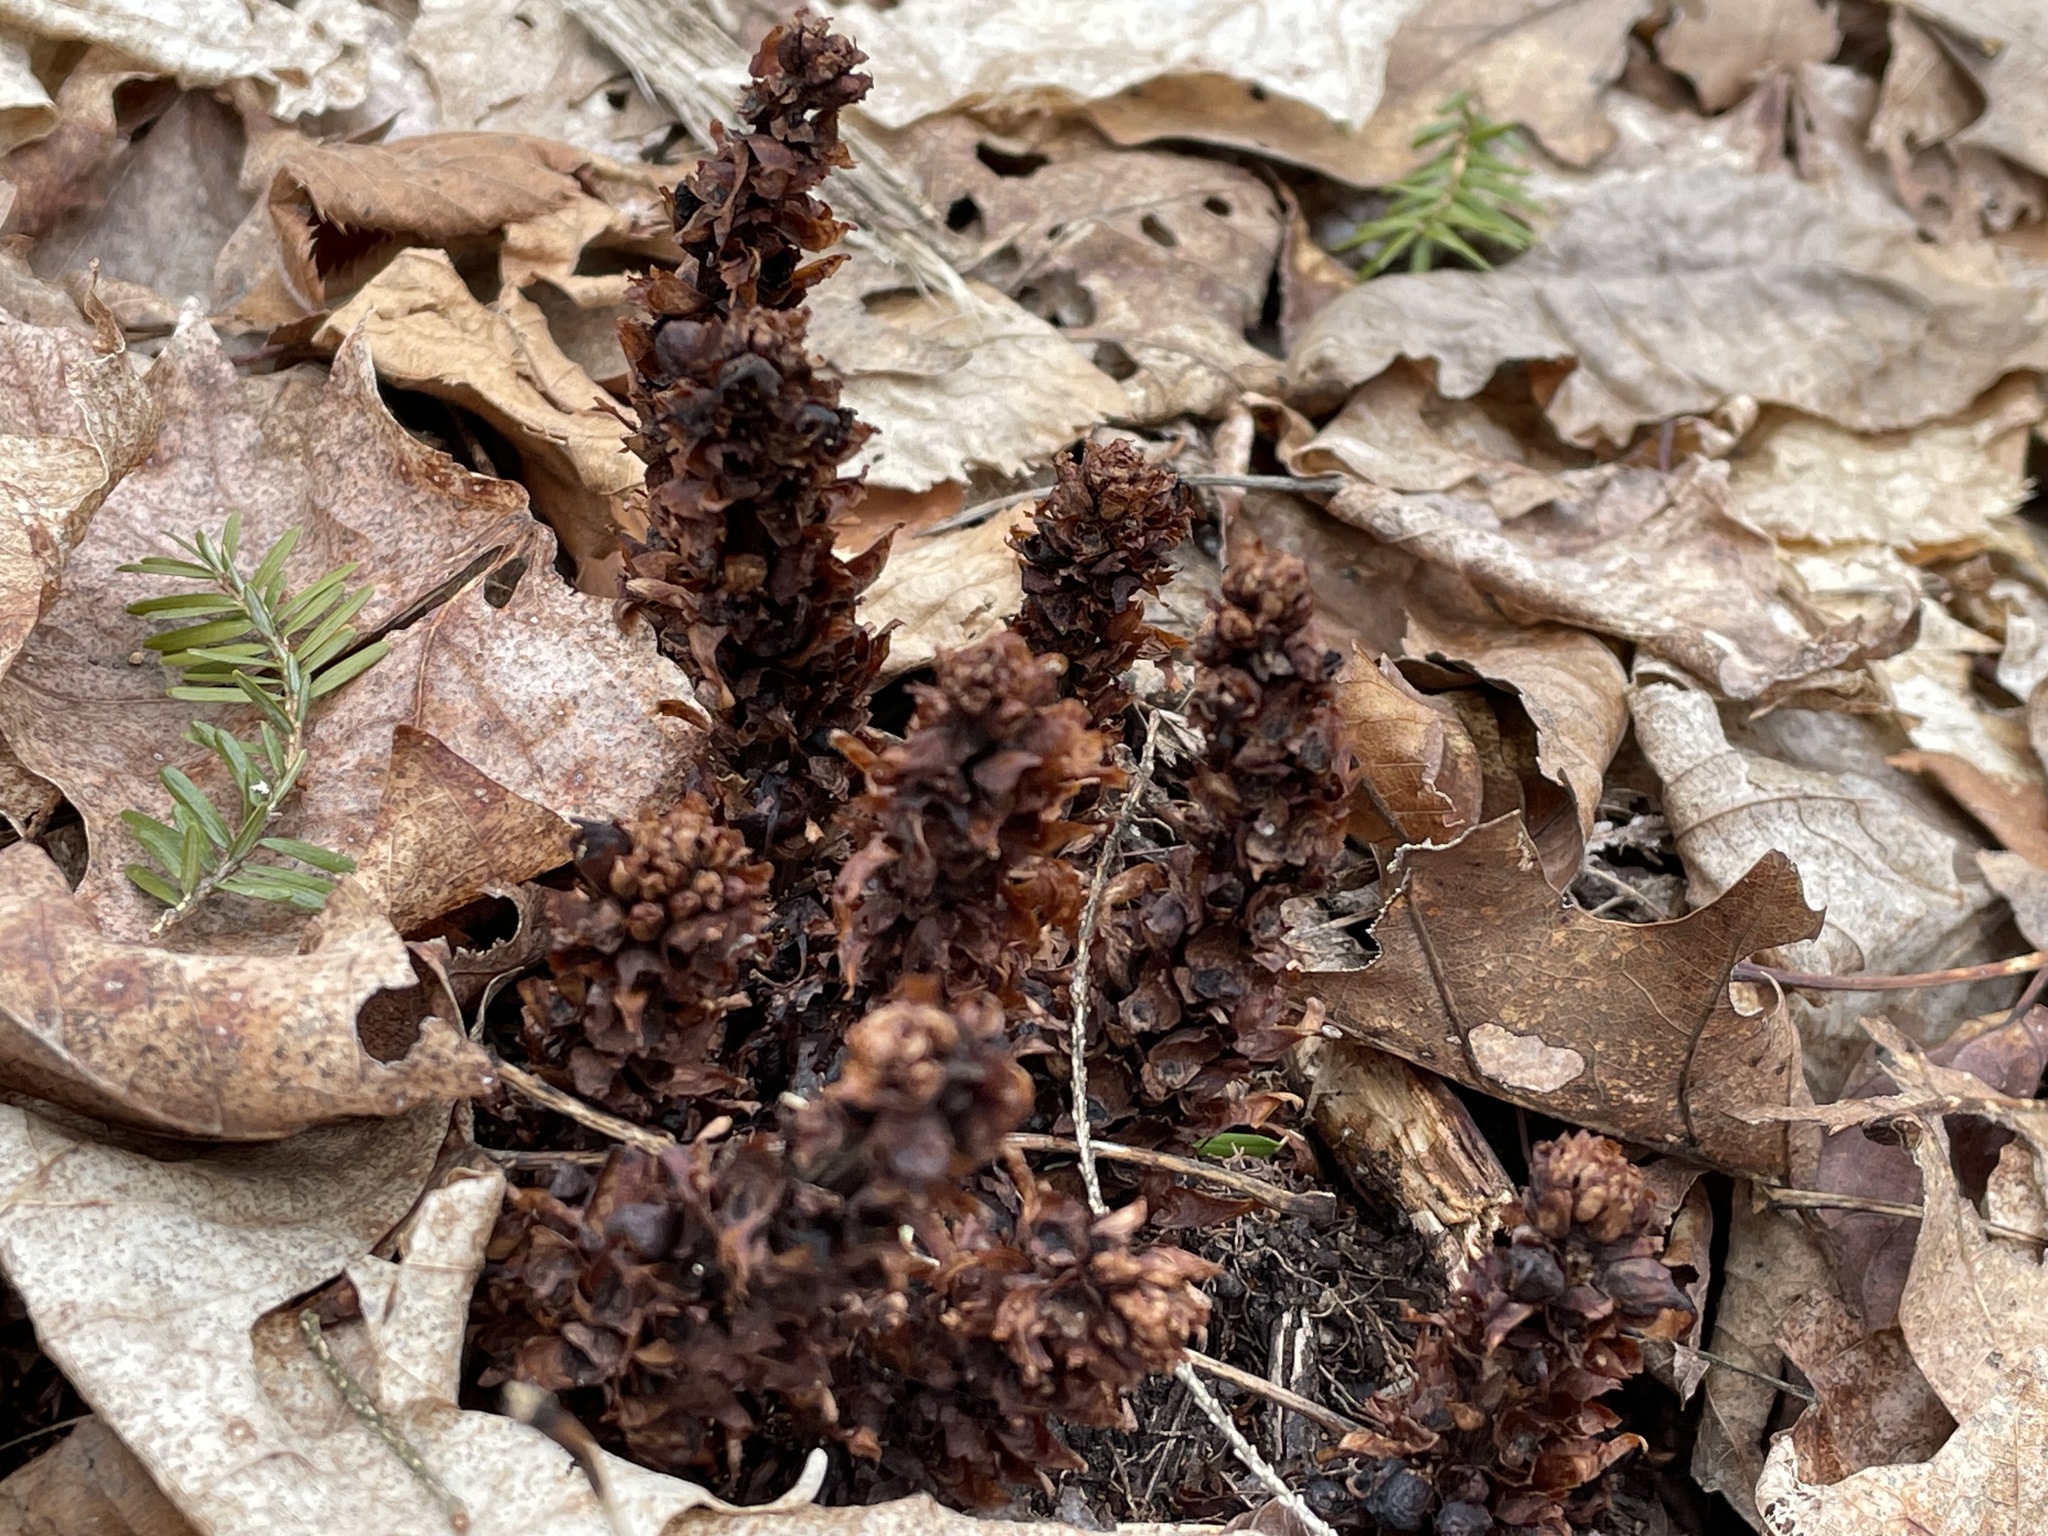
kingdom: Plantae
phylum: Tracheophyta
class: Magnoliopsida
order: Lamiales
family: Orobanchaceae
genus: Conopholis
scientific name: Conopholis americana
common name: American cancer-root
